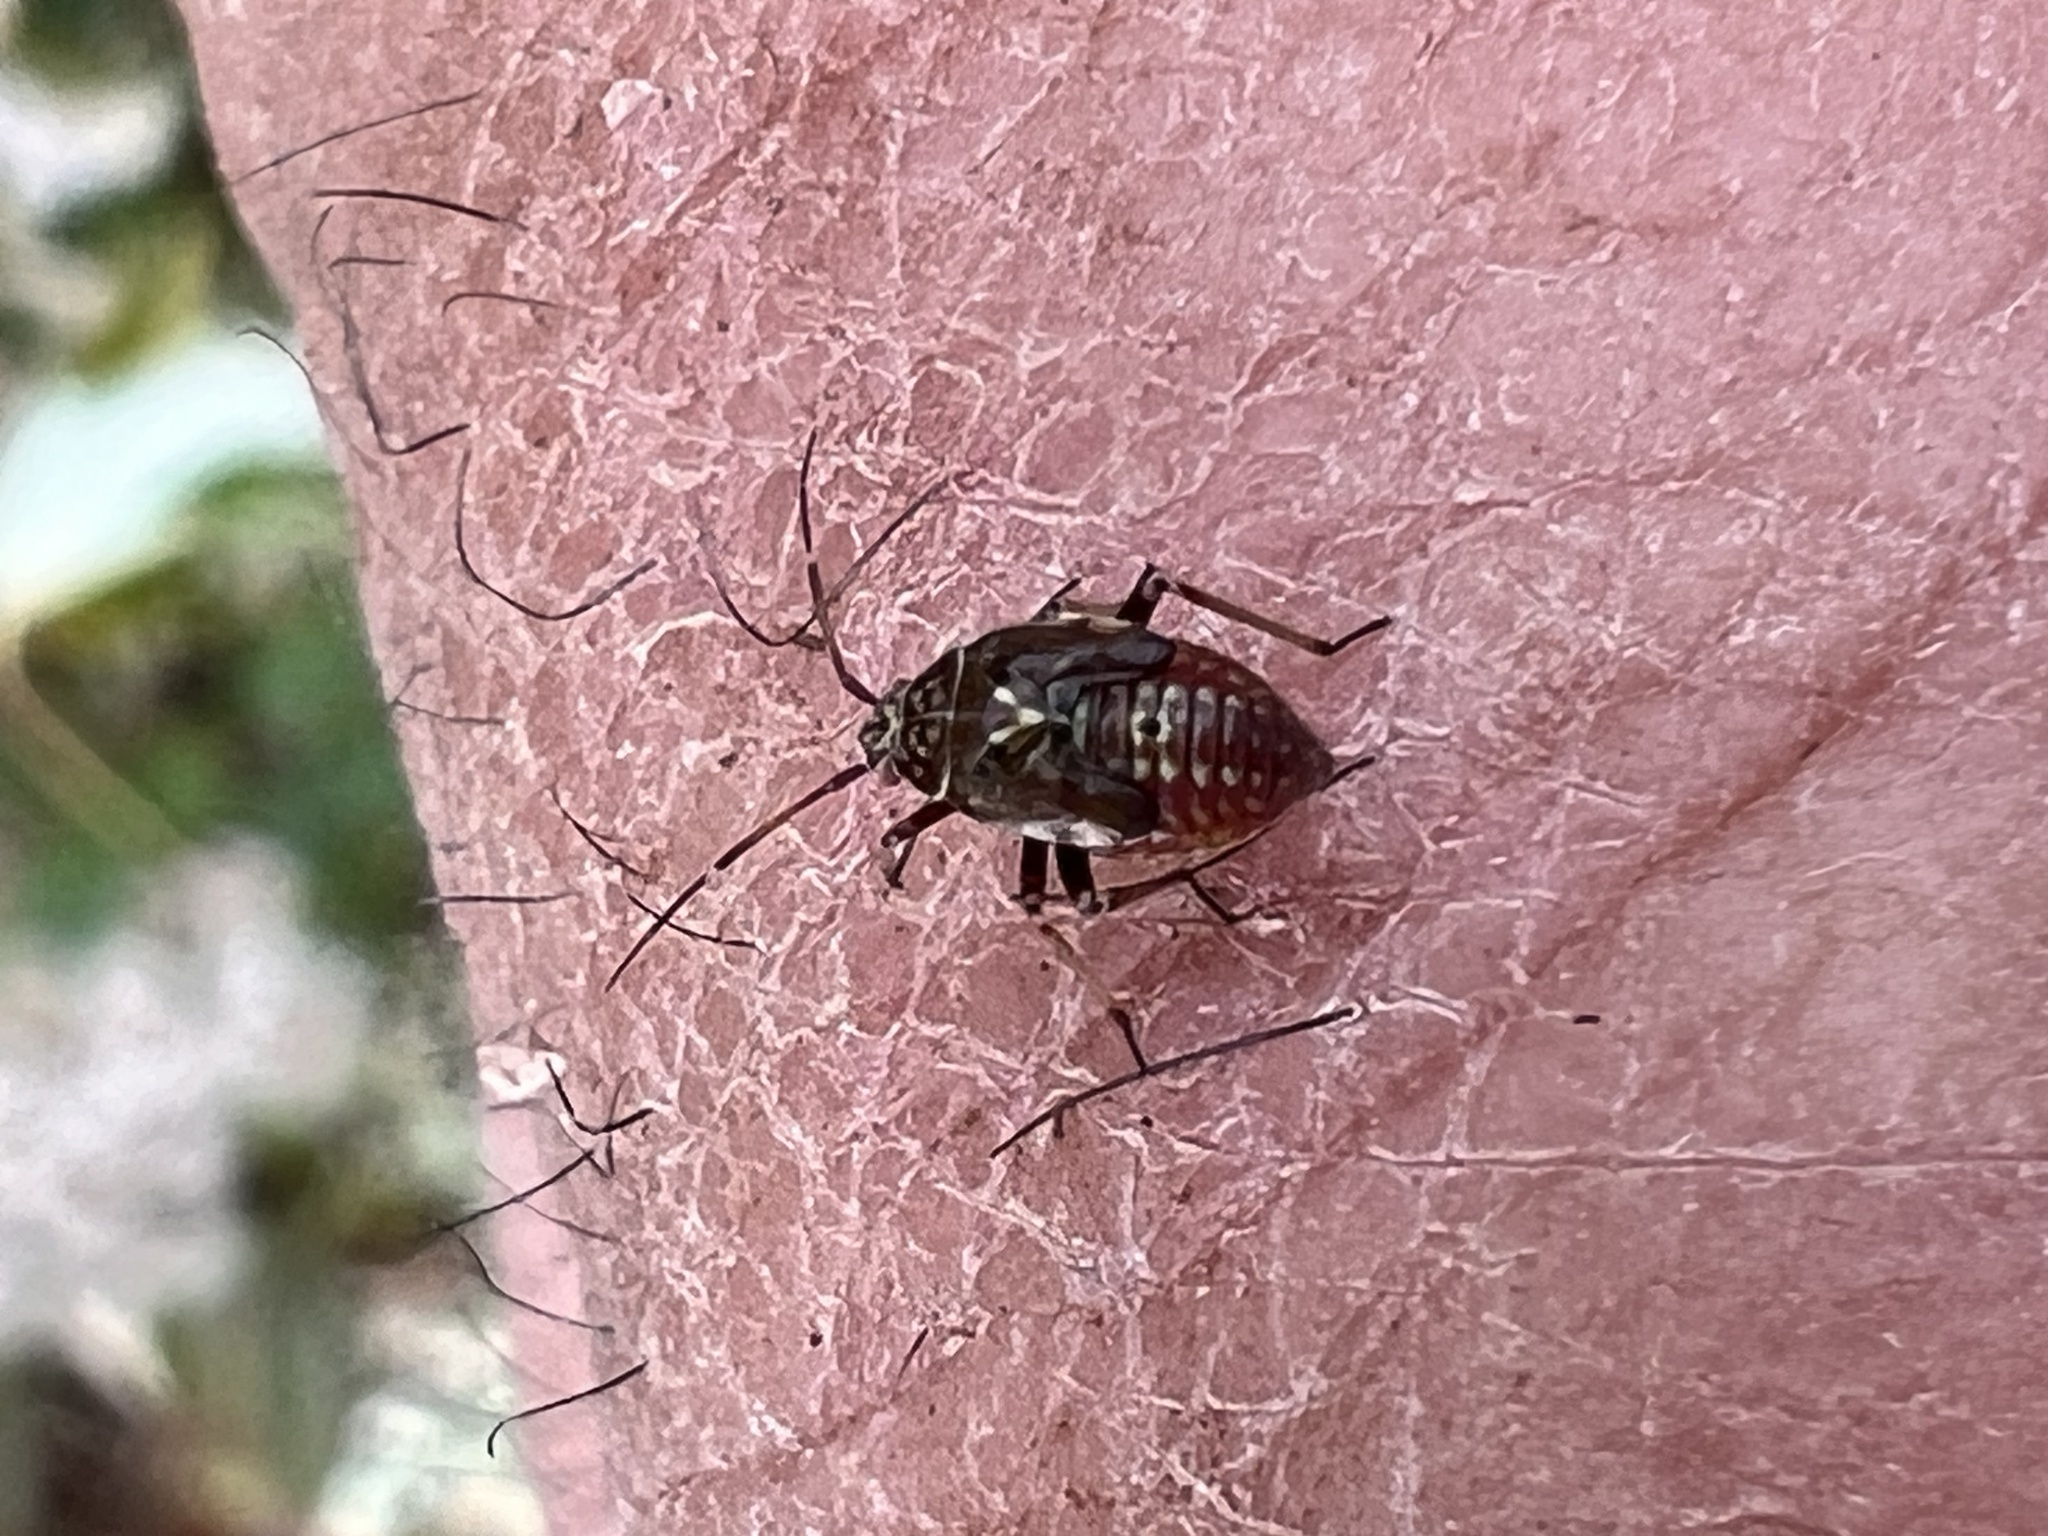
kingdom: Animalia
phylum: Arthropoda
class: Insecta
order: Hemiptera
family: Miridae
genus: Lygus
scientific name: Lygus lineolaris
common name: North american tarnished plant bug
